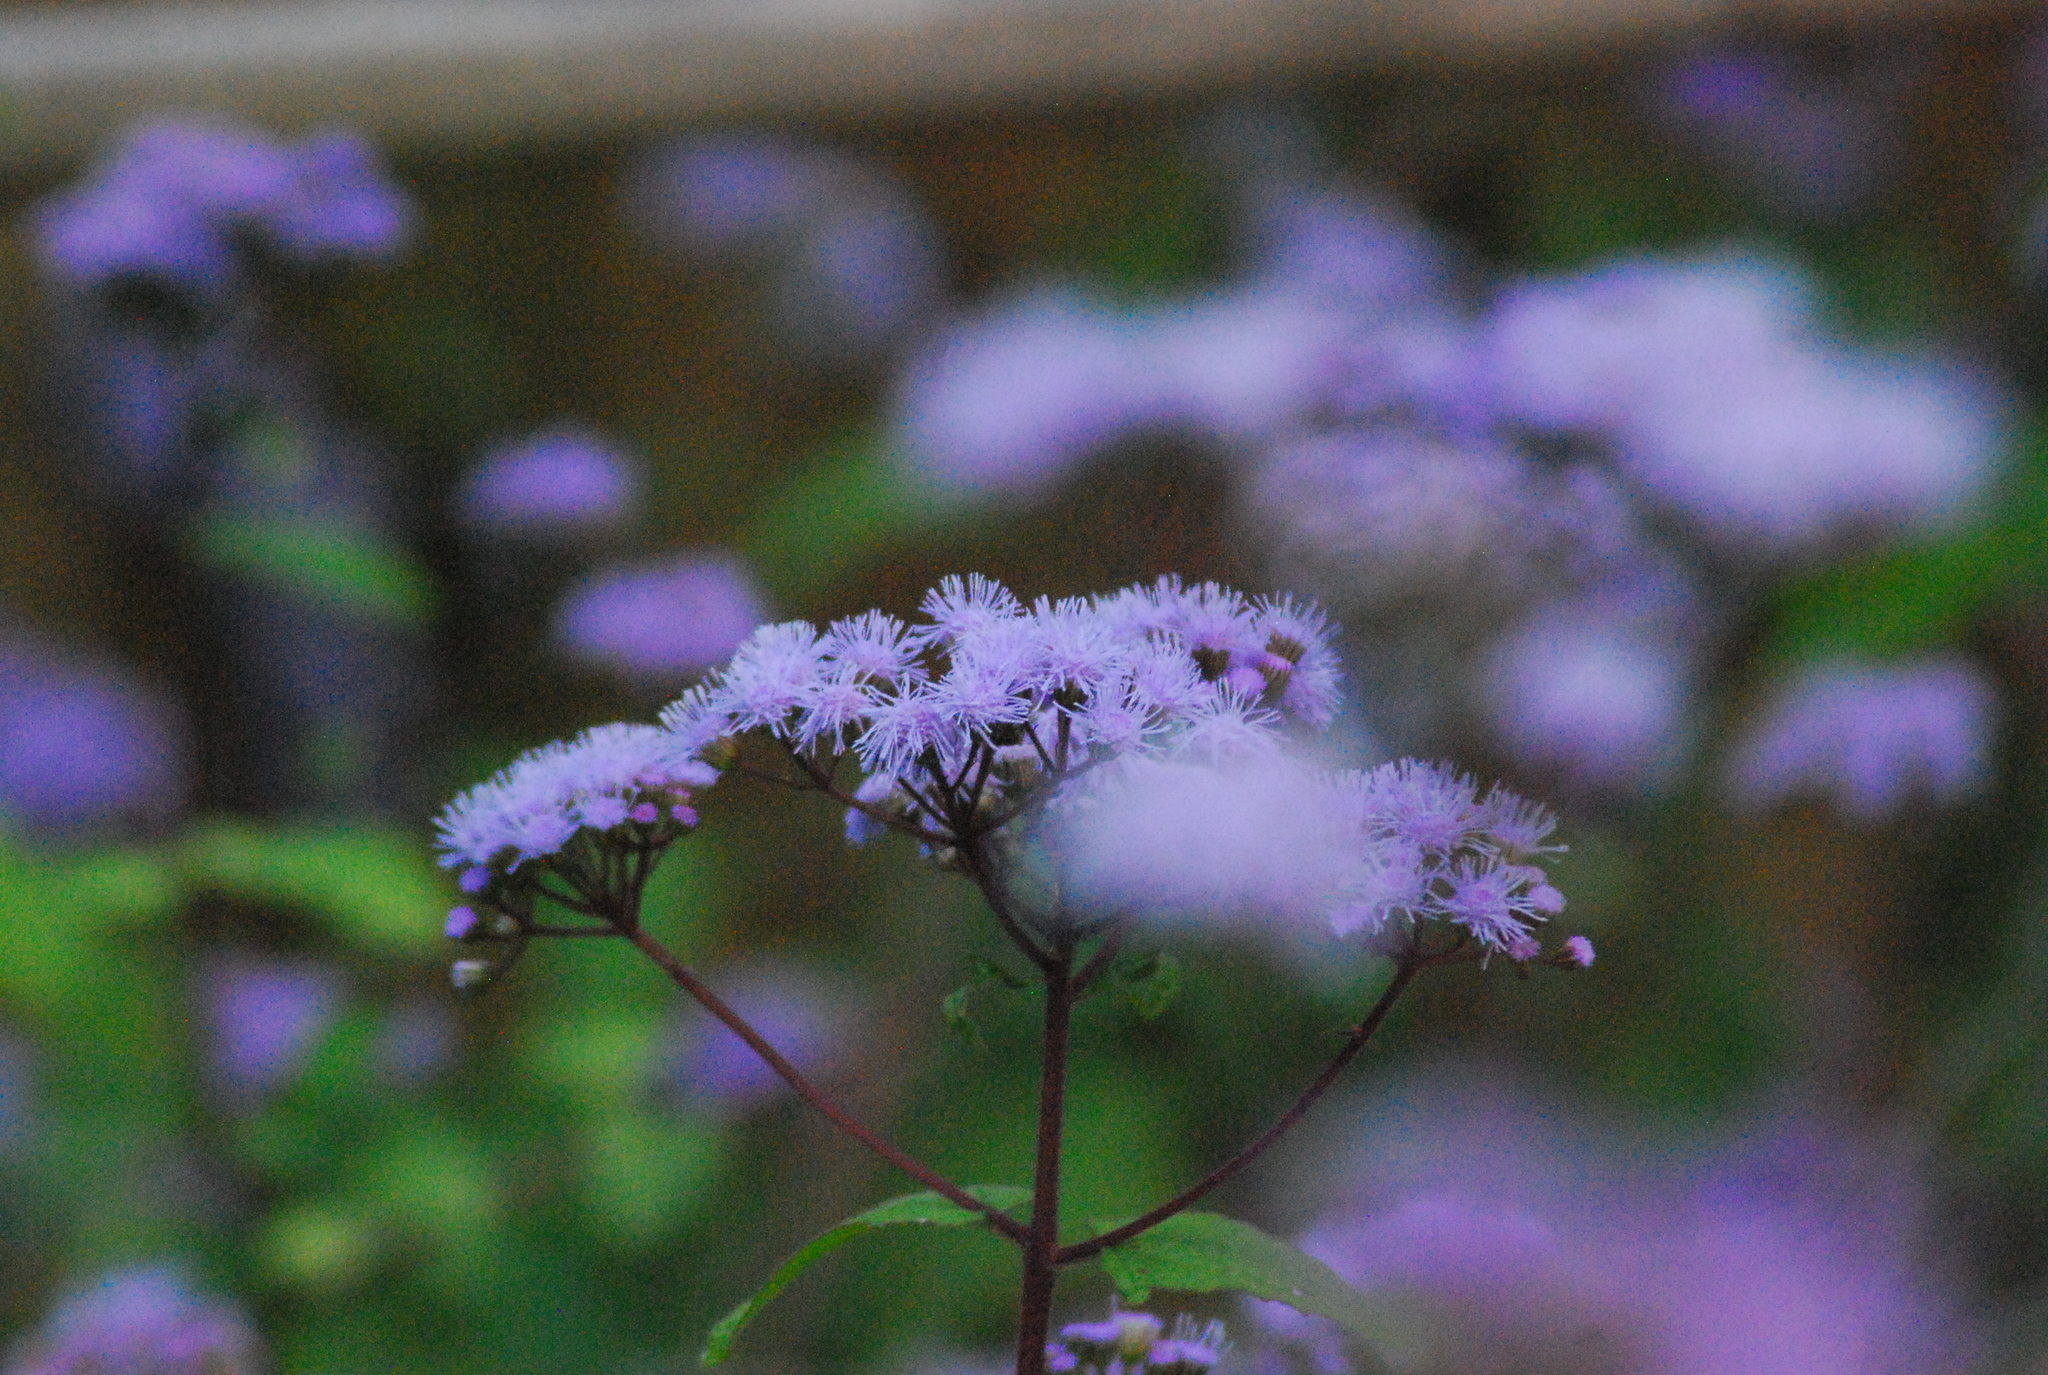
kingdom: Plantae
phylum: Tracheophyta
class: Magnoliopsida
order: Asterales
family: Asteraceae
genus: Conoclinium
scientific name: Conoclinium coelestinum
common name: Blue mistflower
